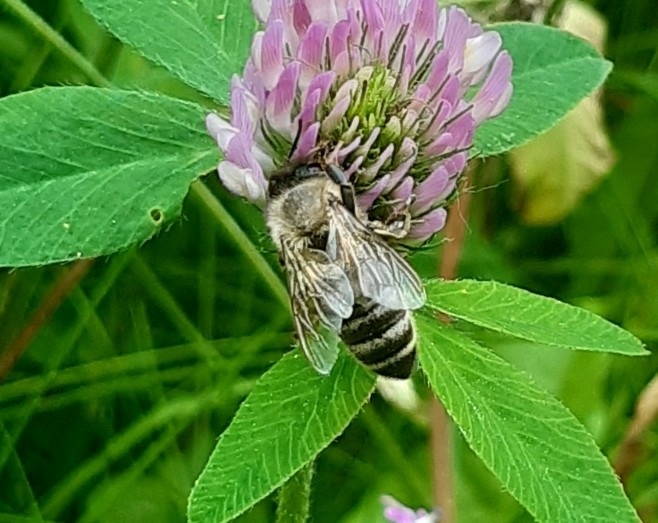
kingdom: Animalia
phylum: Arthropoda
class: Insecta
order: Hymenoptera
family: Apidae
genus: Apis
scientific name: Apis mellifera
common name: Honey bee
